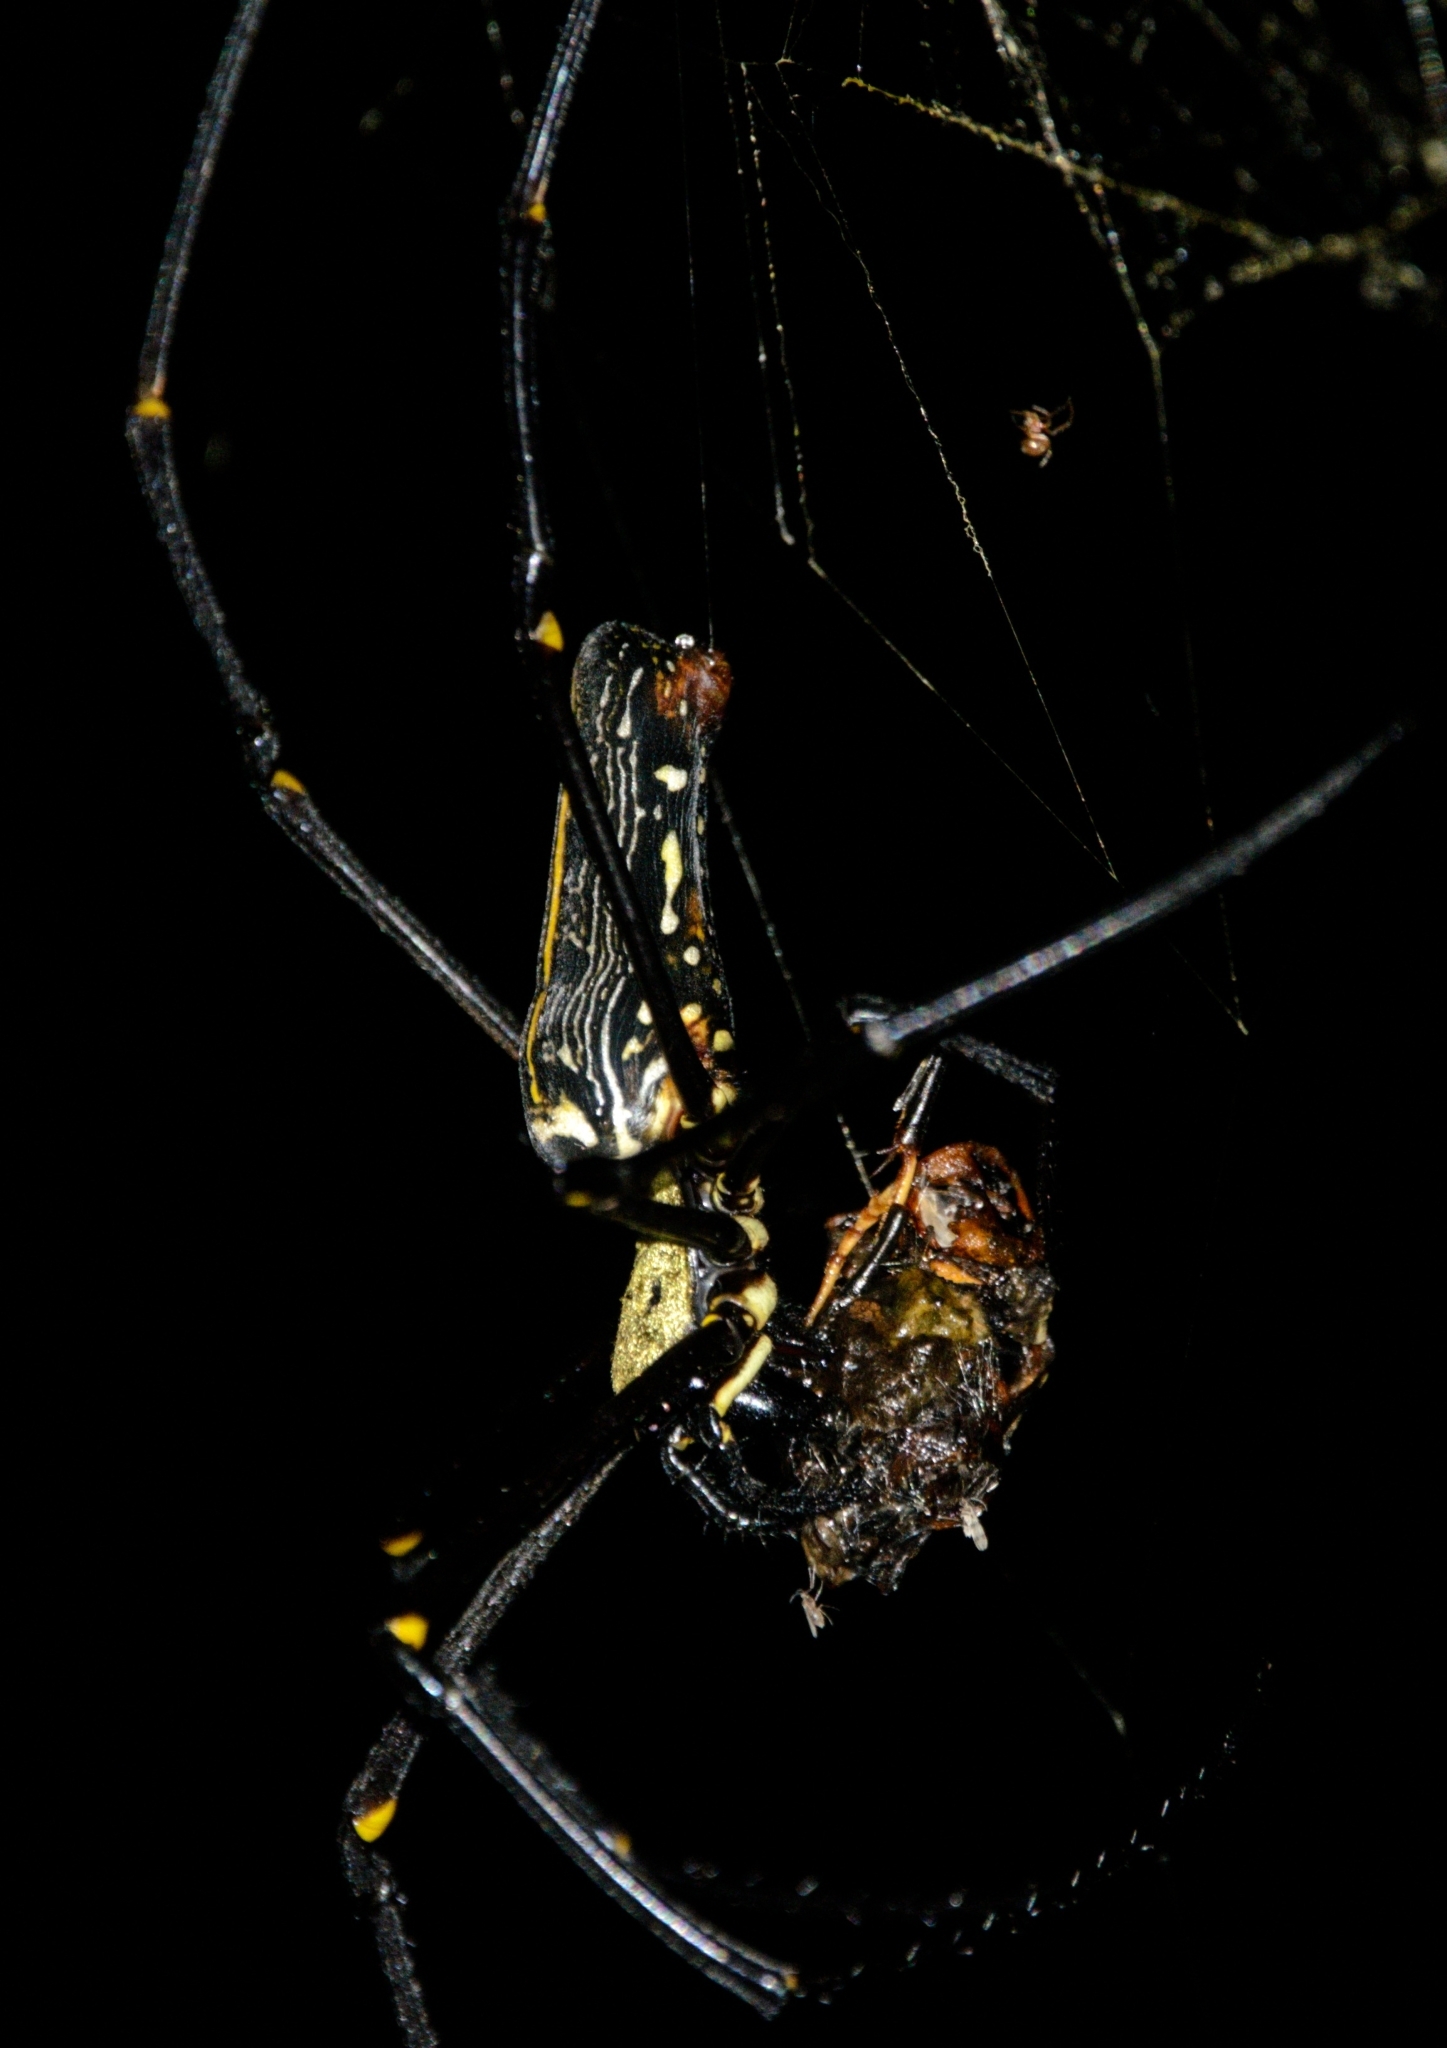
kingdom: Animalia
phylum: Arthropoda
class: Arachnida
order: Araneae
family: Araneidae
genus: Nephila
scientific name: Nephila pilipes
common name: Giant golden orb weaver
